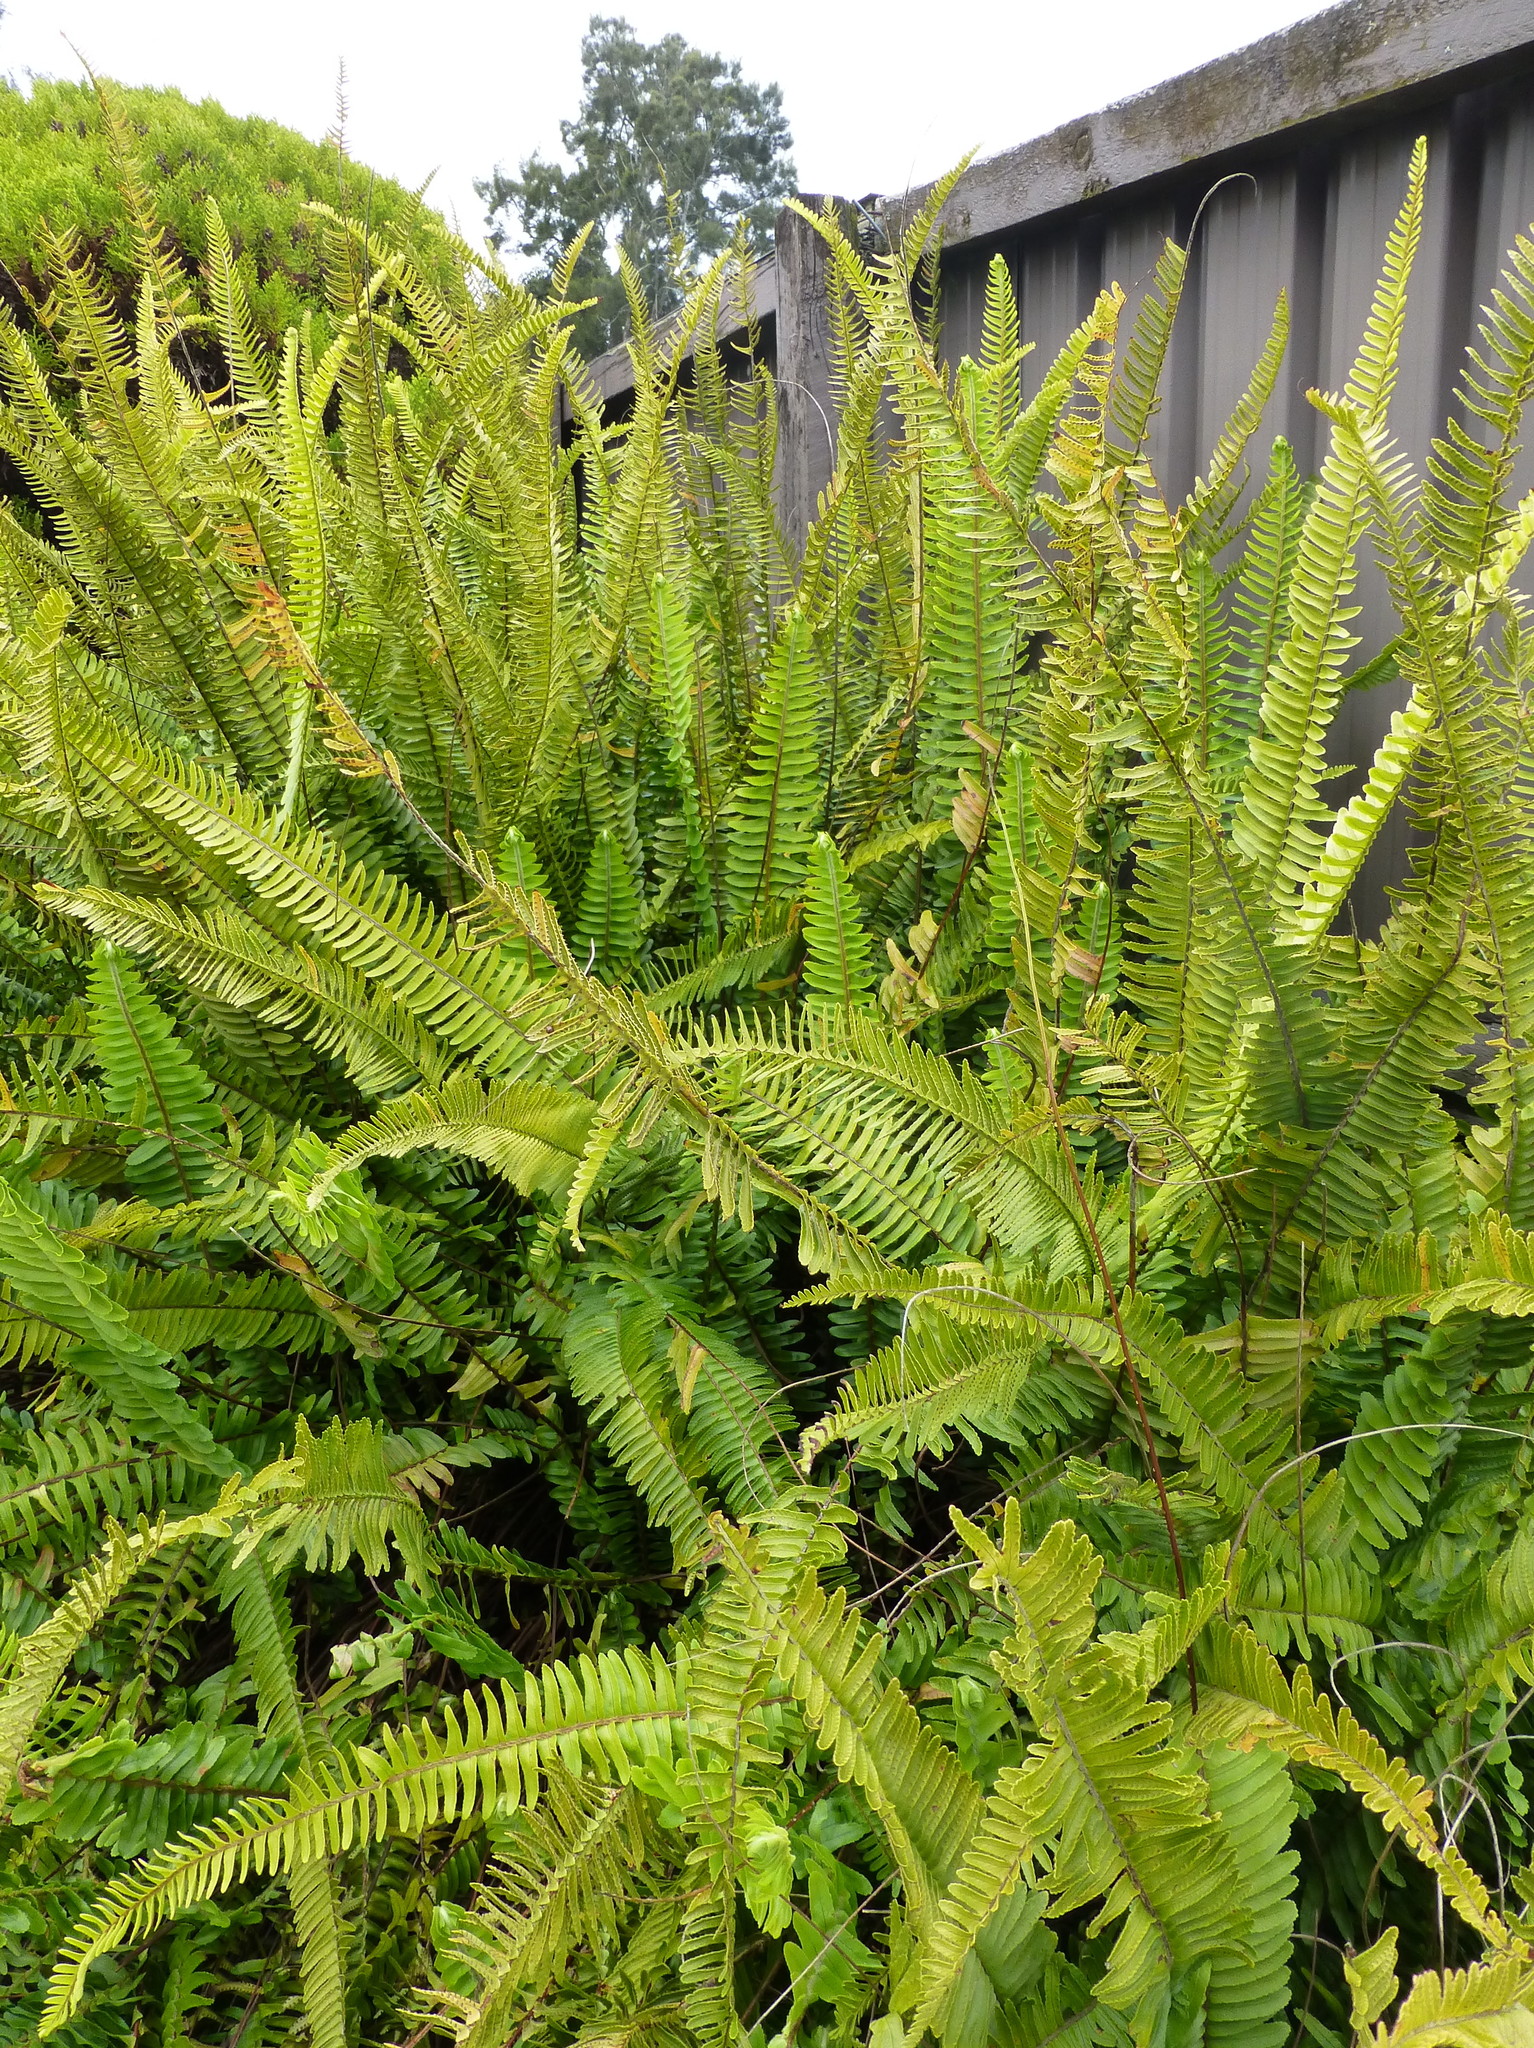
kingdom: Plantae
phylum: Tracheophyta
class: Polypodiopsida
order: Polypodiales
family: Nephrolepidaceae
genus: Nephrolepis
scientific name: Nephrolepis cordifolia
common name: Narrow swordfern
